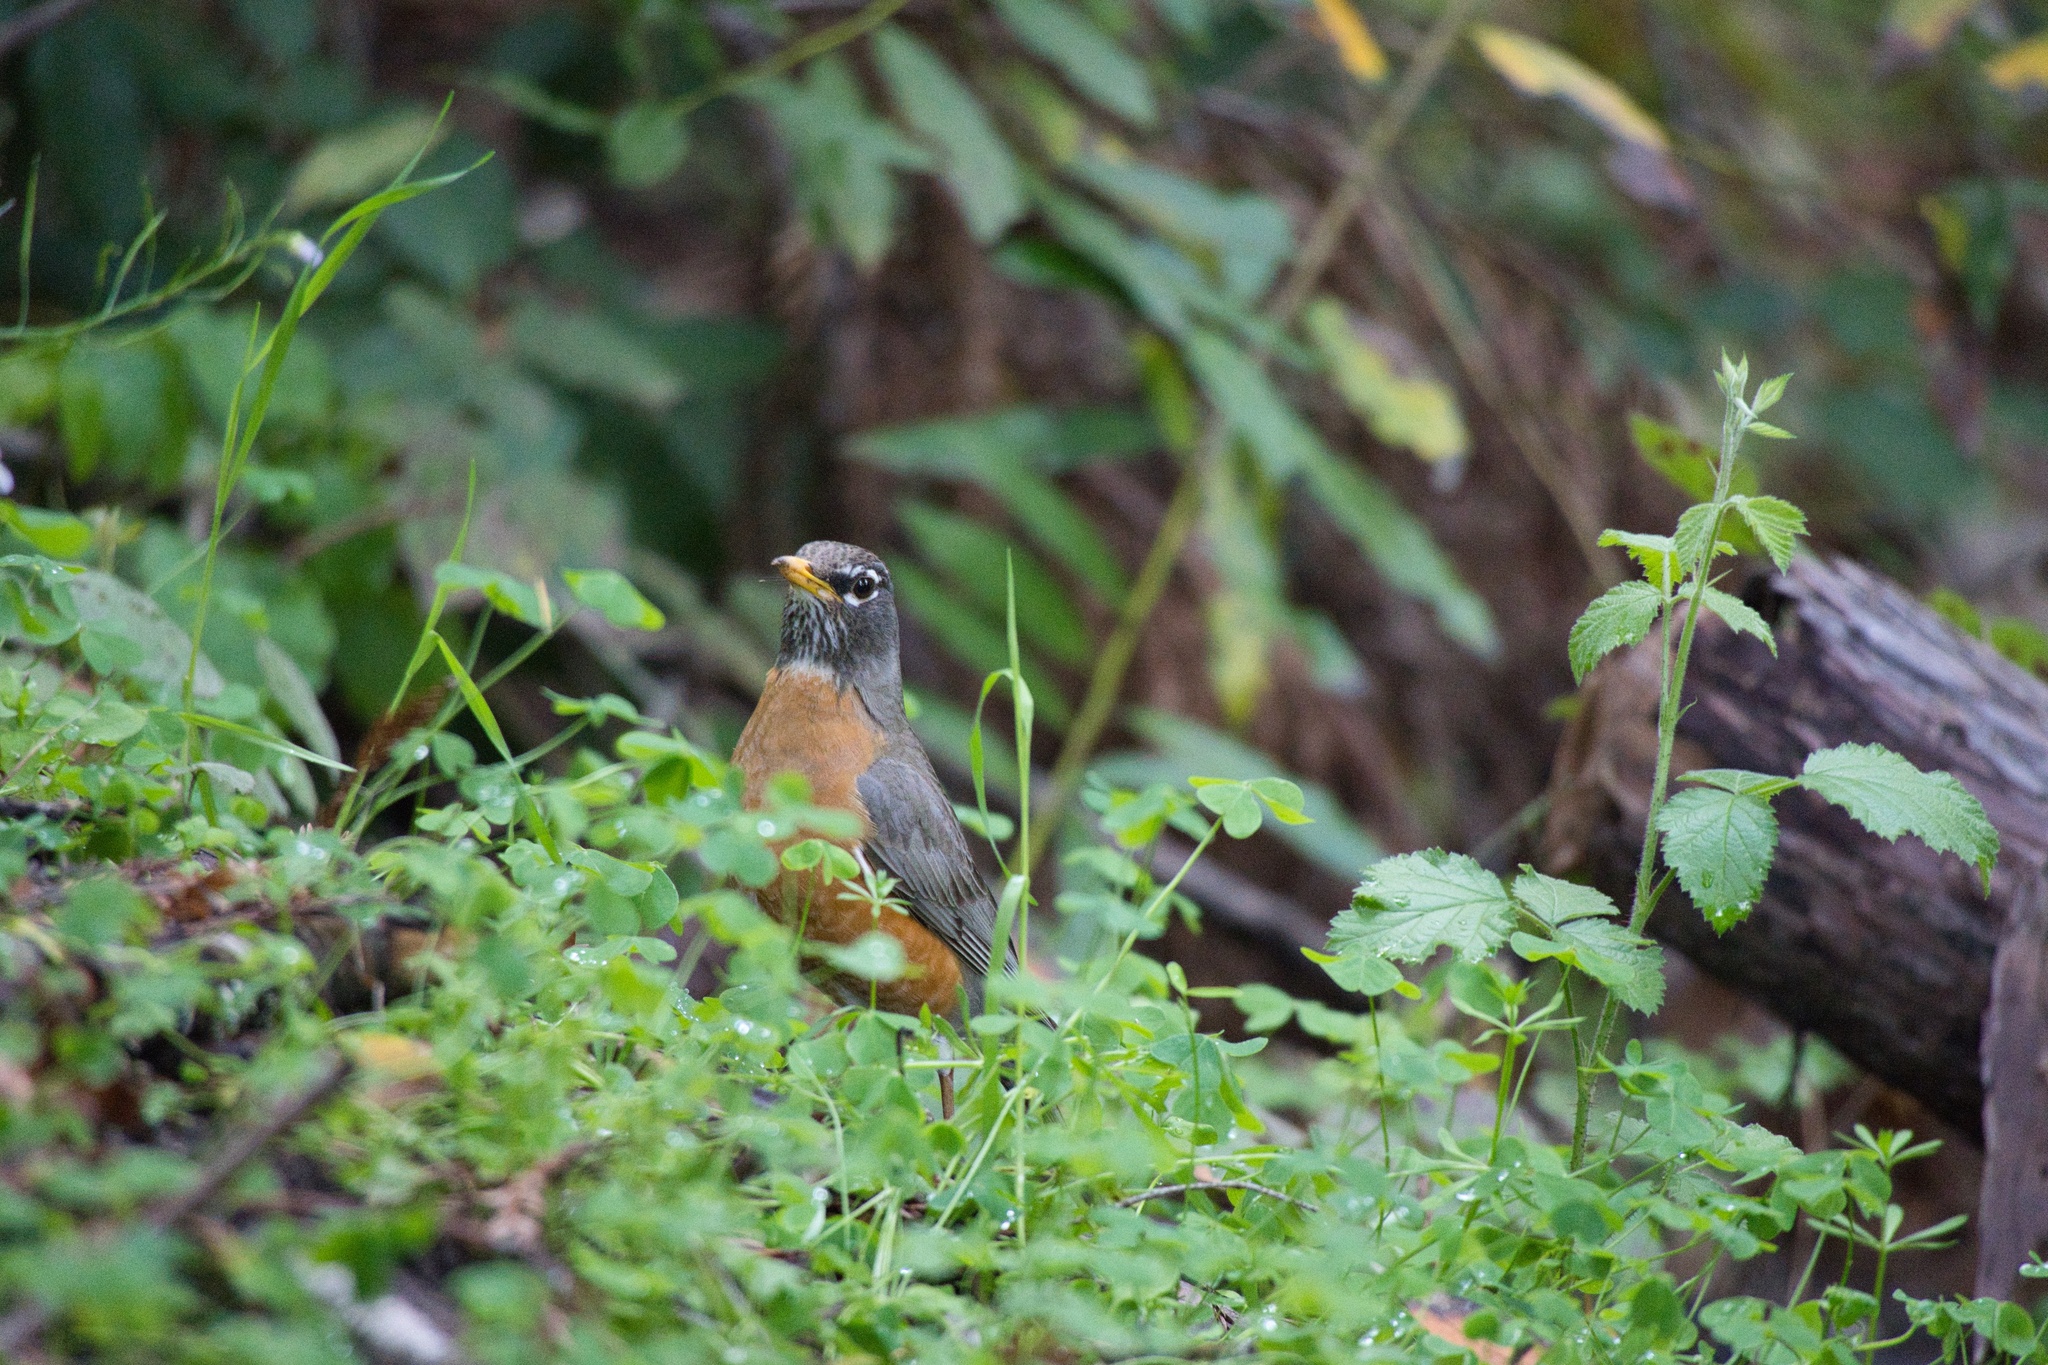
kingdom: Animalia
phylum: Chordata
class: Aves
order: Passeriformes
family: Turdidae
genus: Turdus
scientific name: Turdus migratorius
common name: American robin
